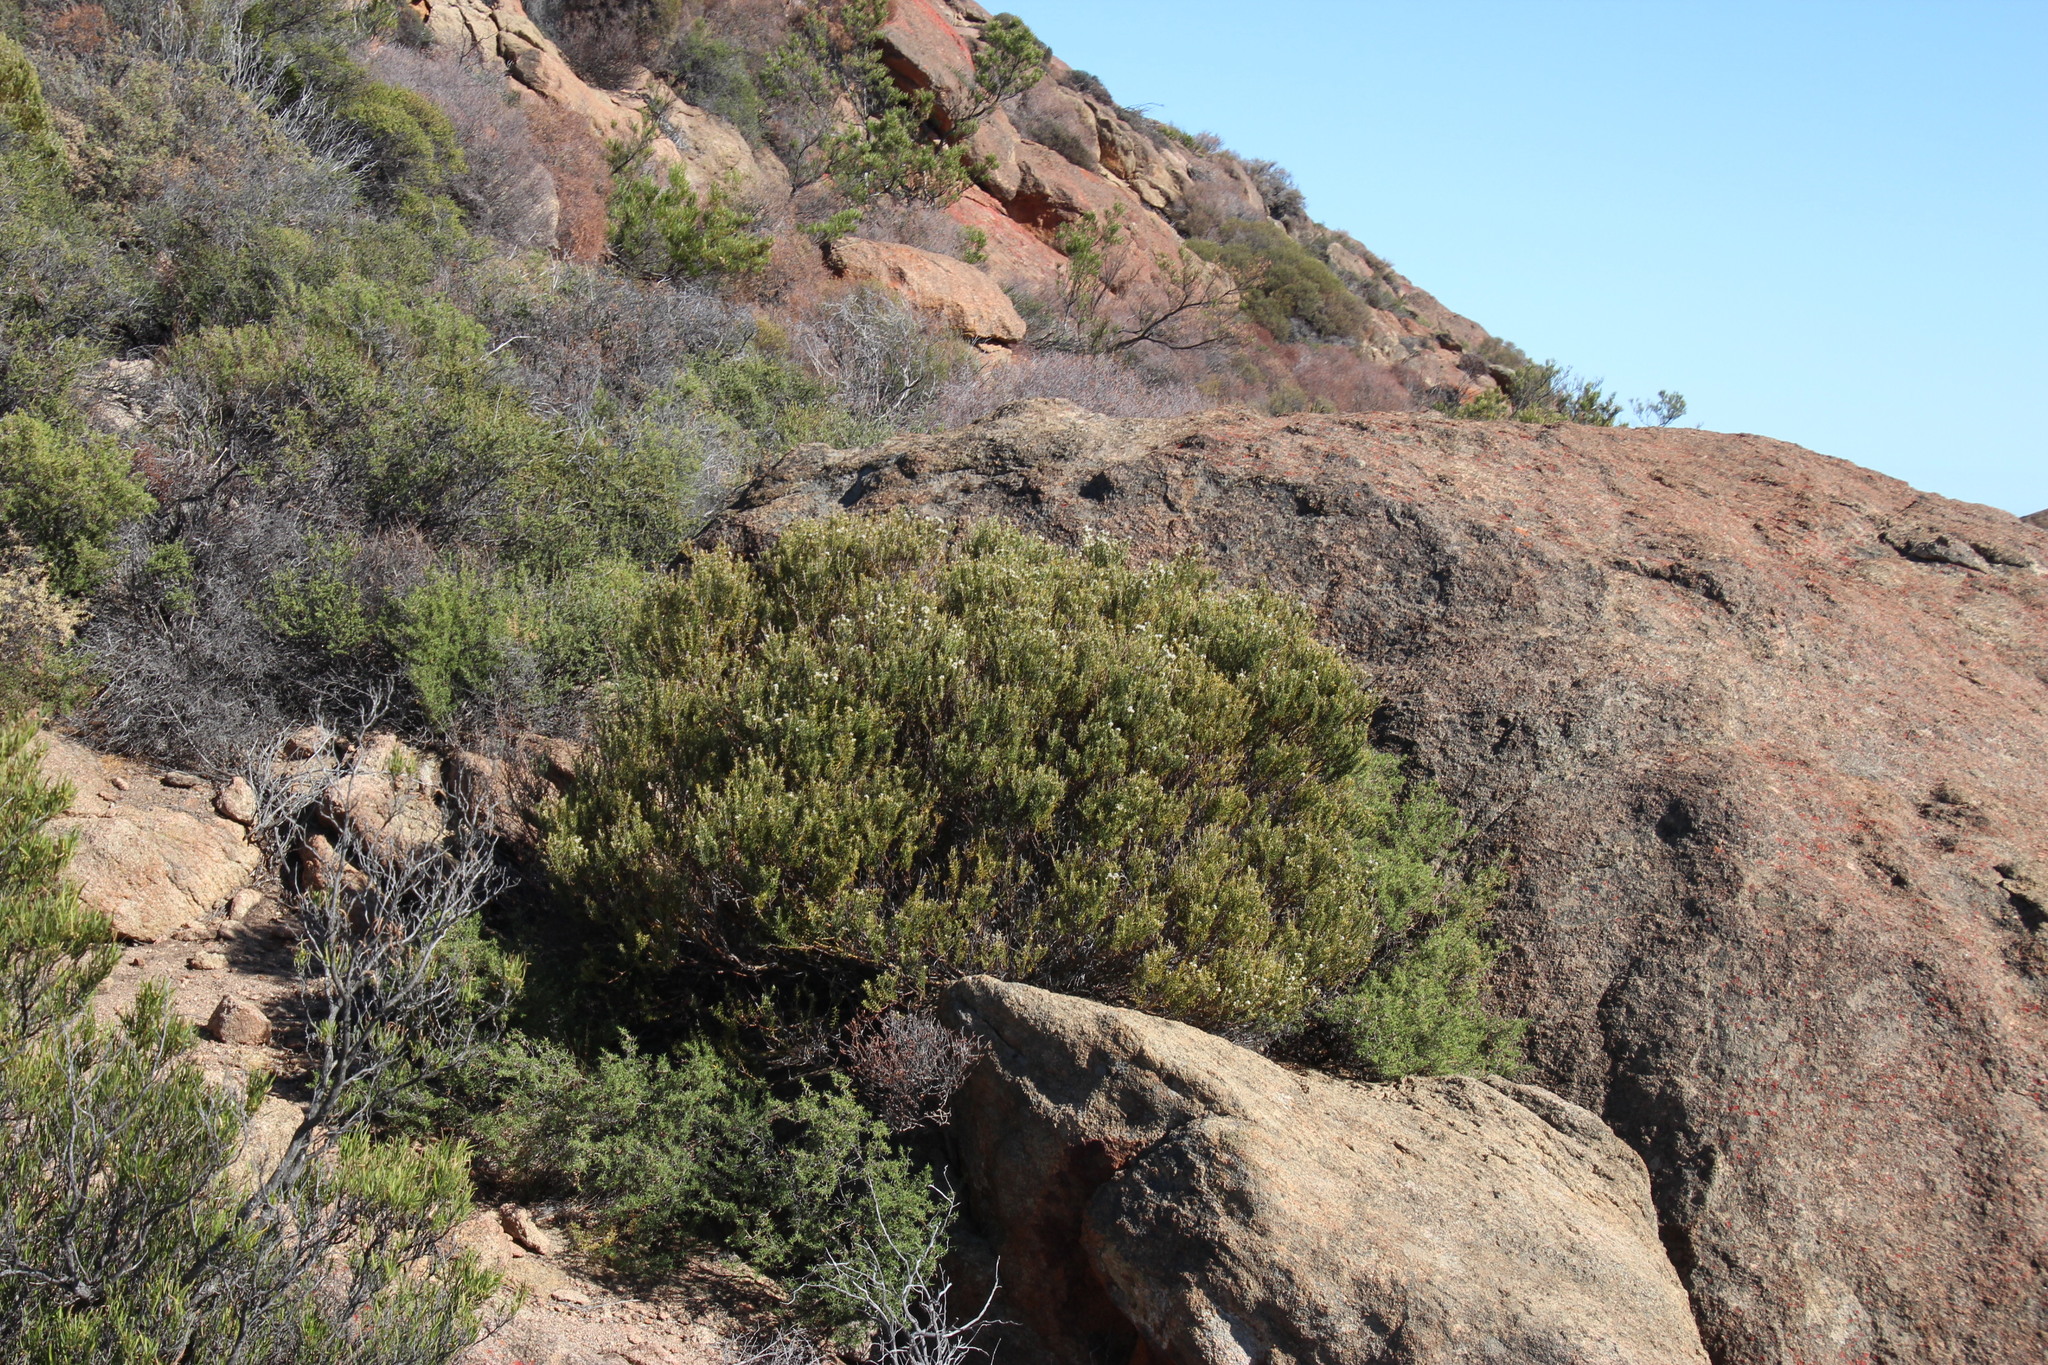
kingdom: Plantae
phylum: Tracheophyta
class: Magnoliopsida
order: Rosales
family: Rhamnaceae
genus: Phylica
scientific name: Phylica montana
